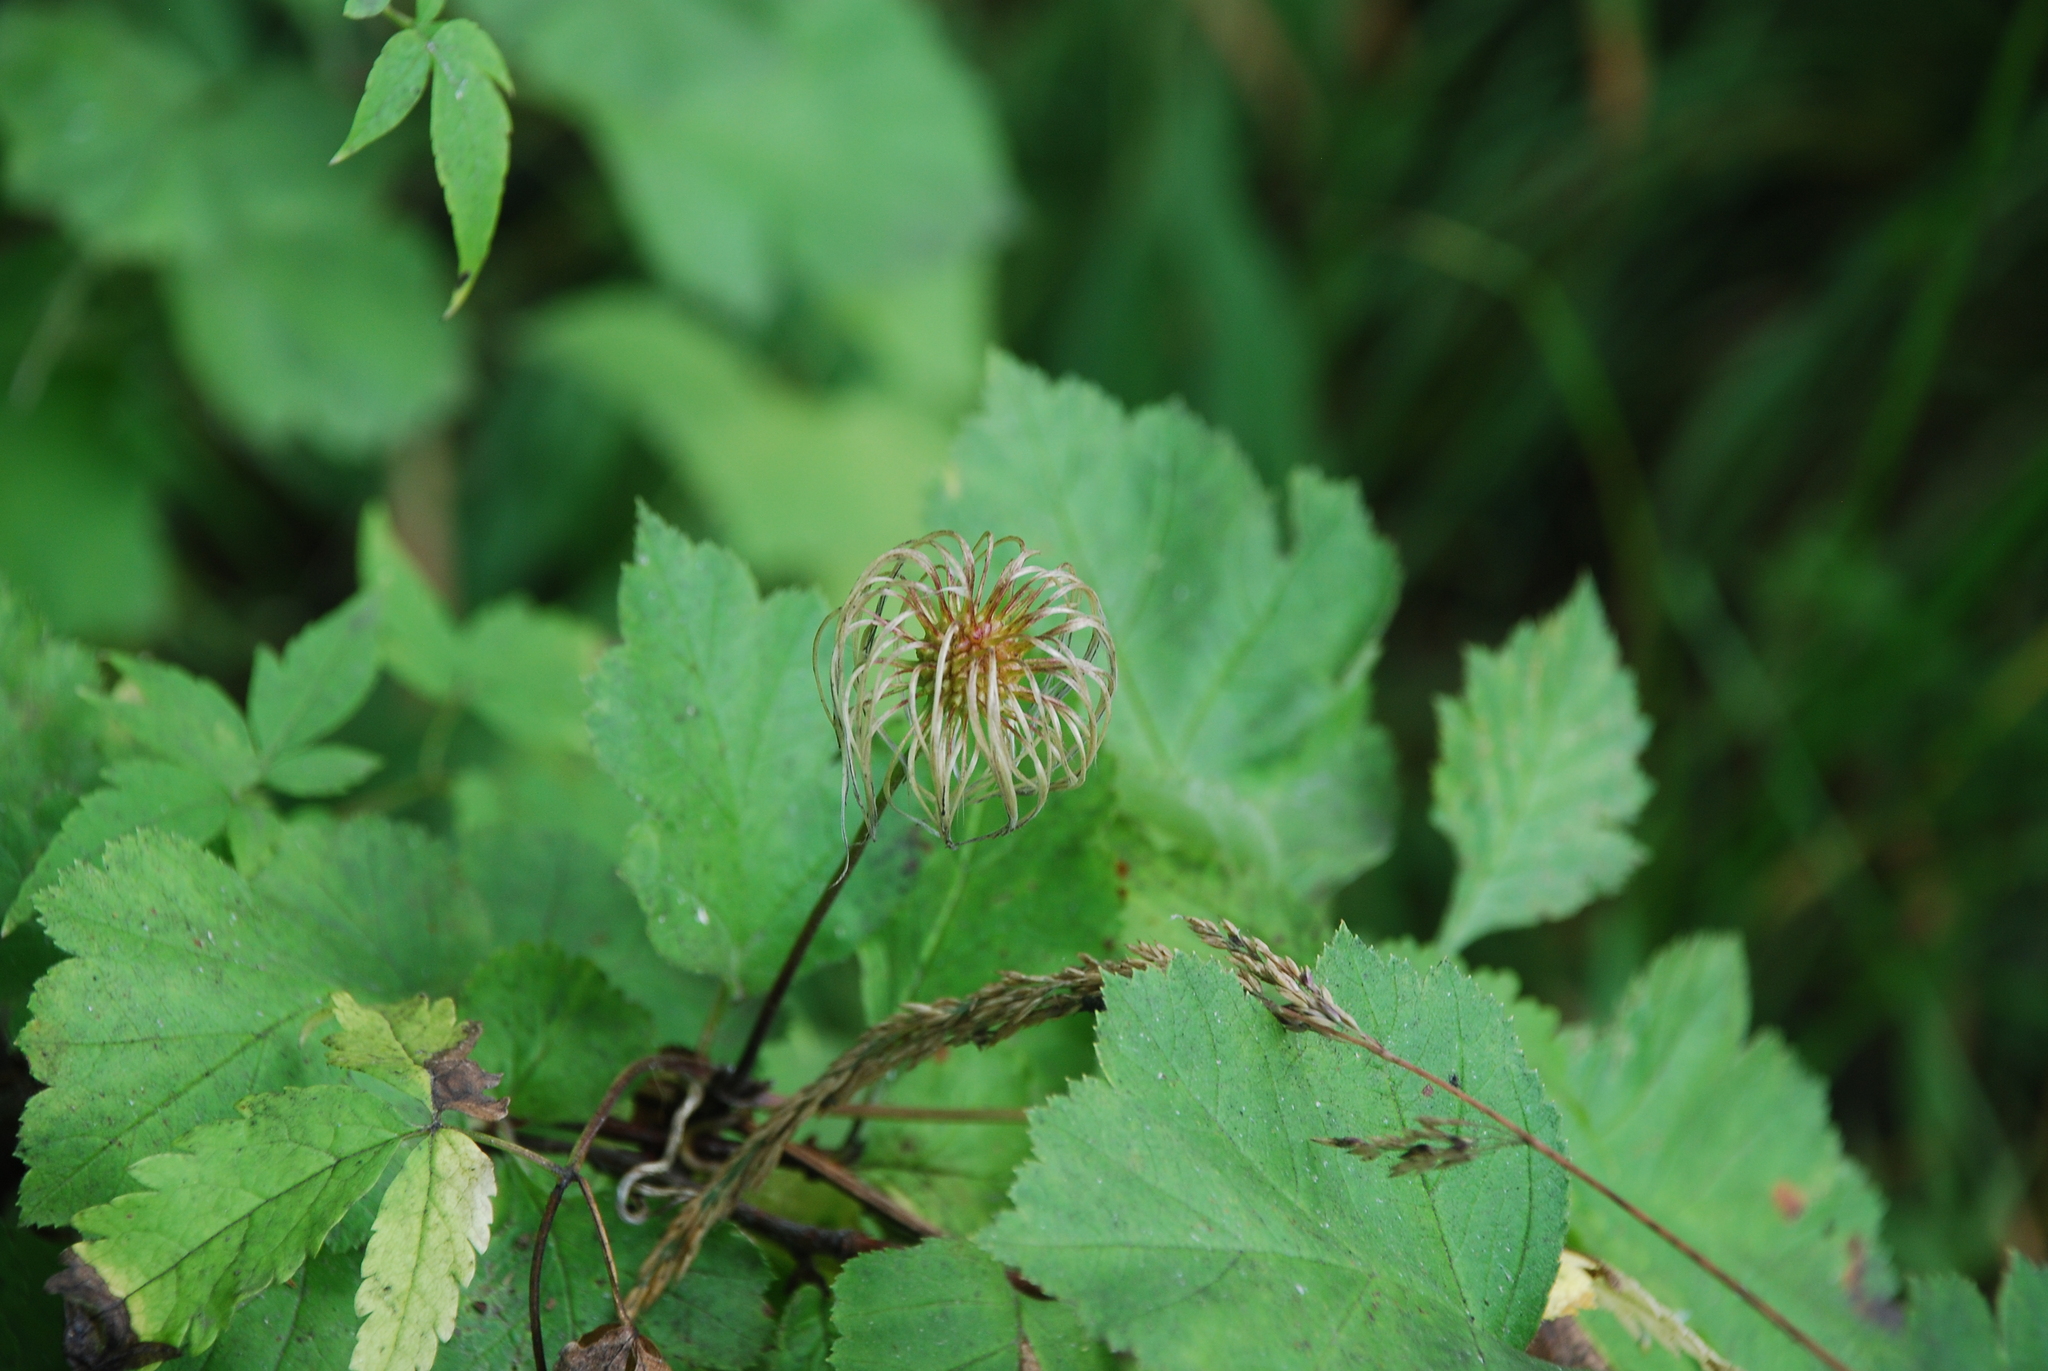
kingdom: Plantae
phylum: Tracheophyta
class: Magnoliopsida
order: Ranunculales
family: Ranunculaceae
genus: Clematis
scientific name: Clematis sibirica
